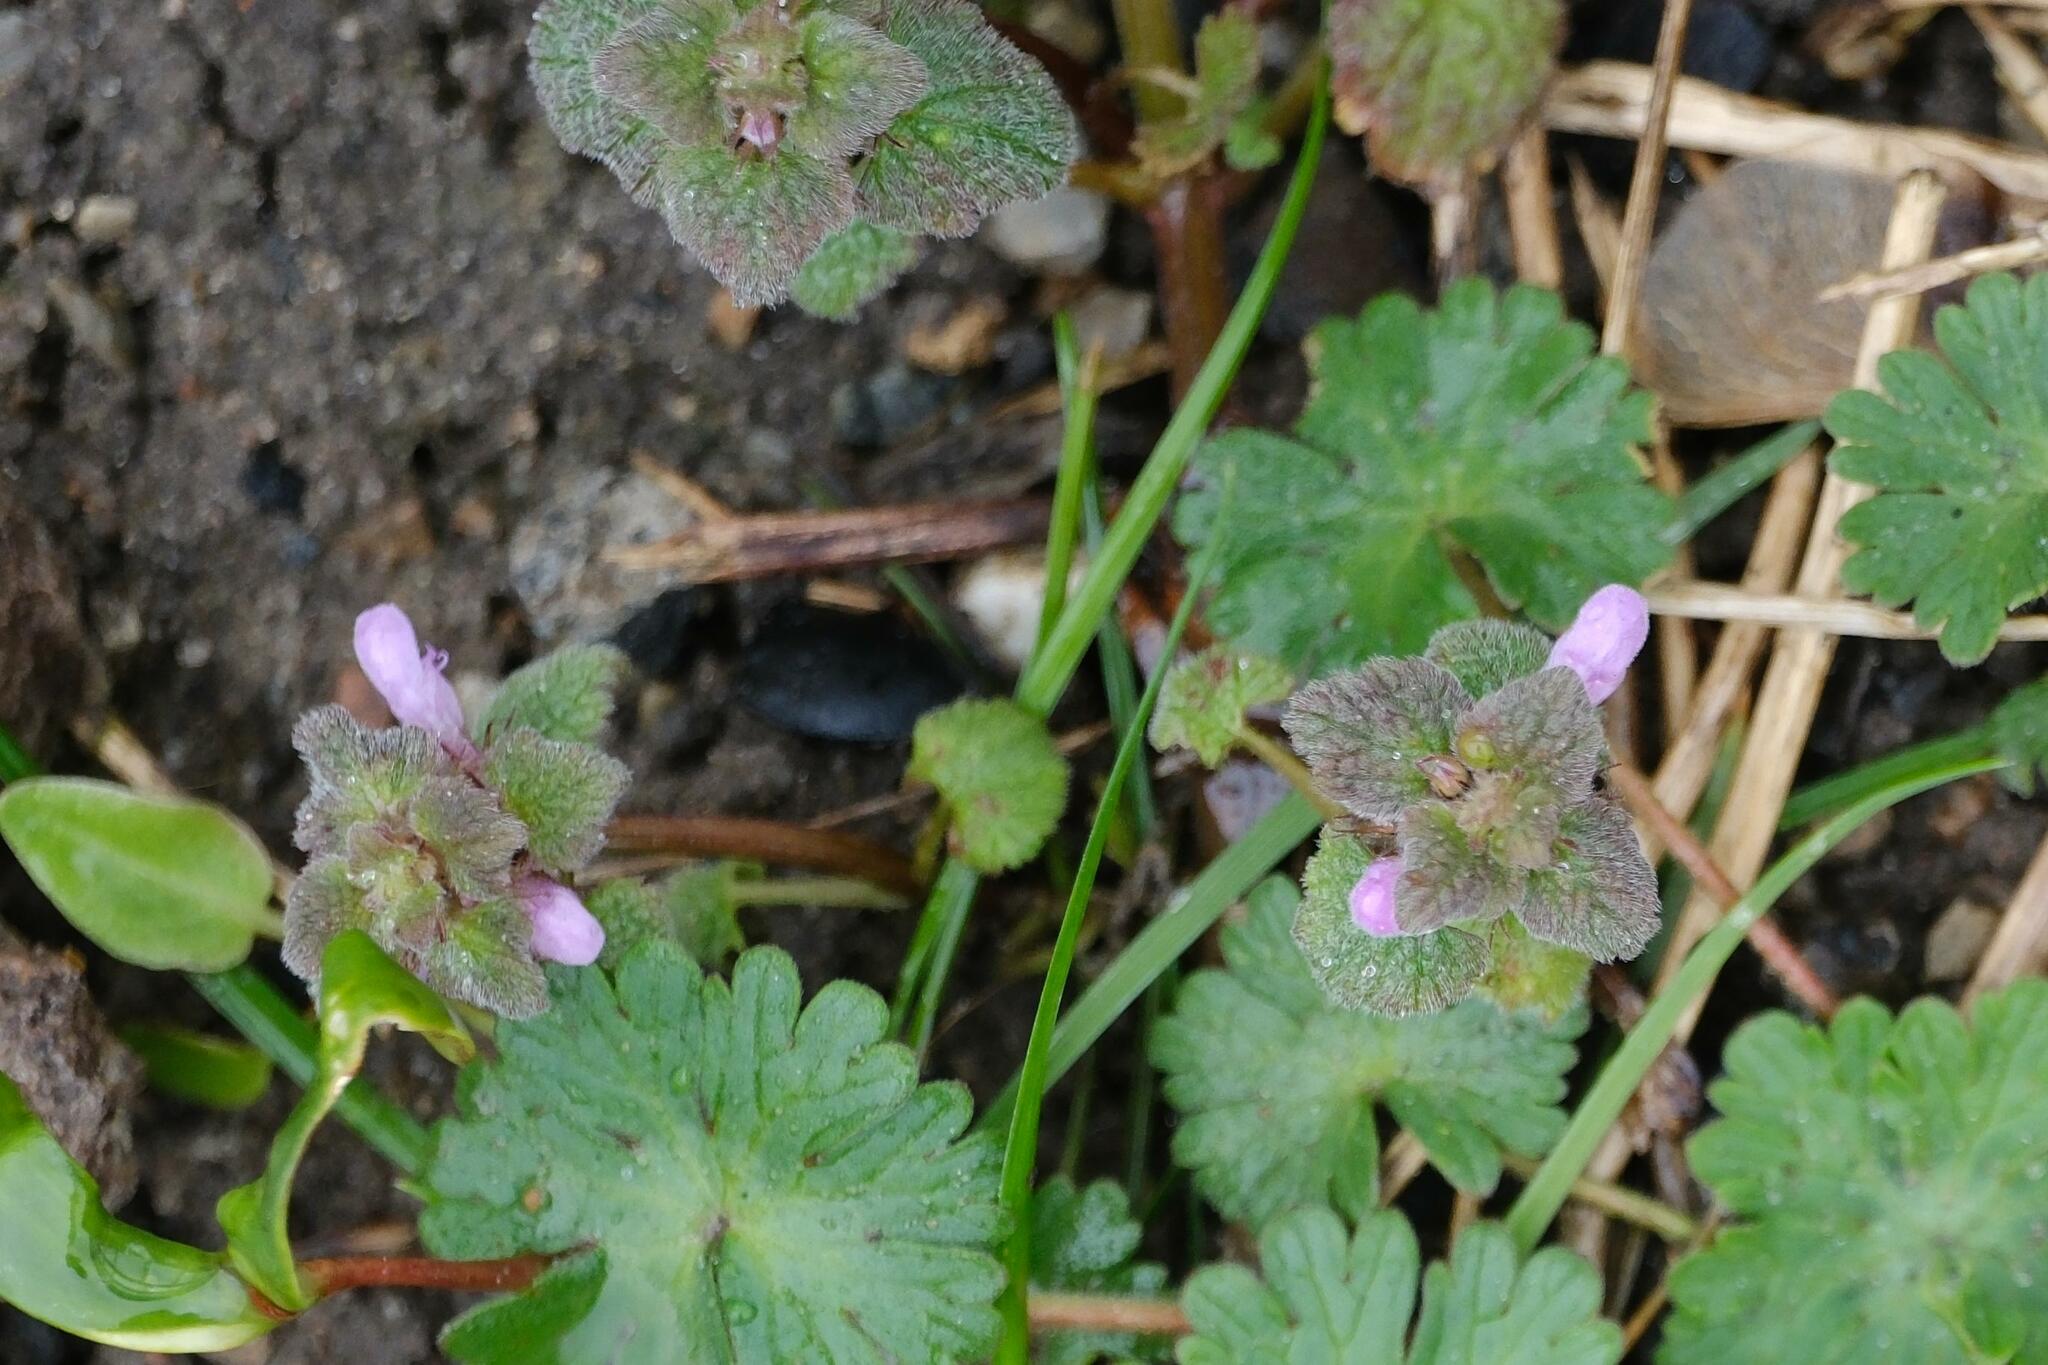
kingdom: Plantae
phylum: Tracheophyta
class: Magnoliopsida
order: Lamiales
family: Lamiaceae
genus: Lamium
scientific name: Lamium purpureum
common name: Red dead-nettle
